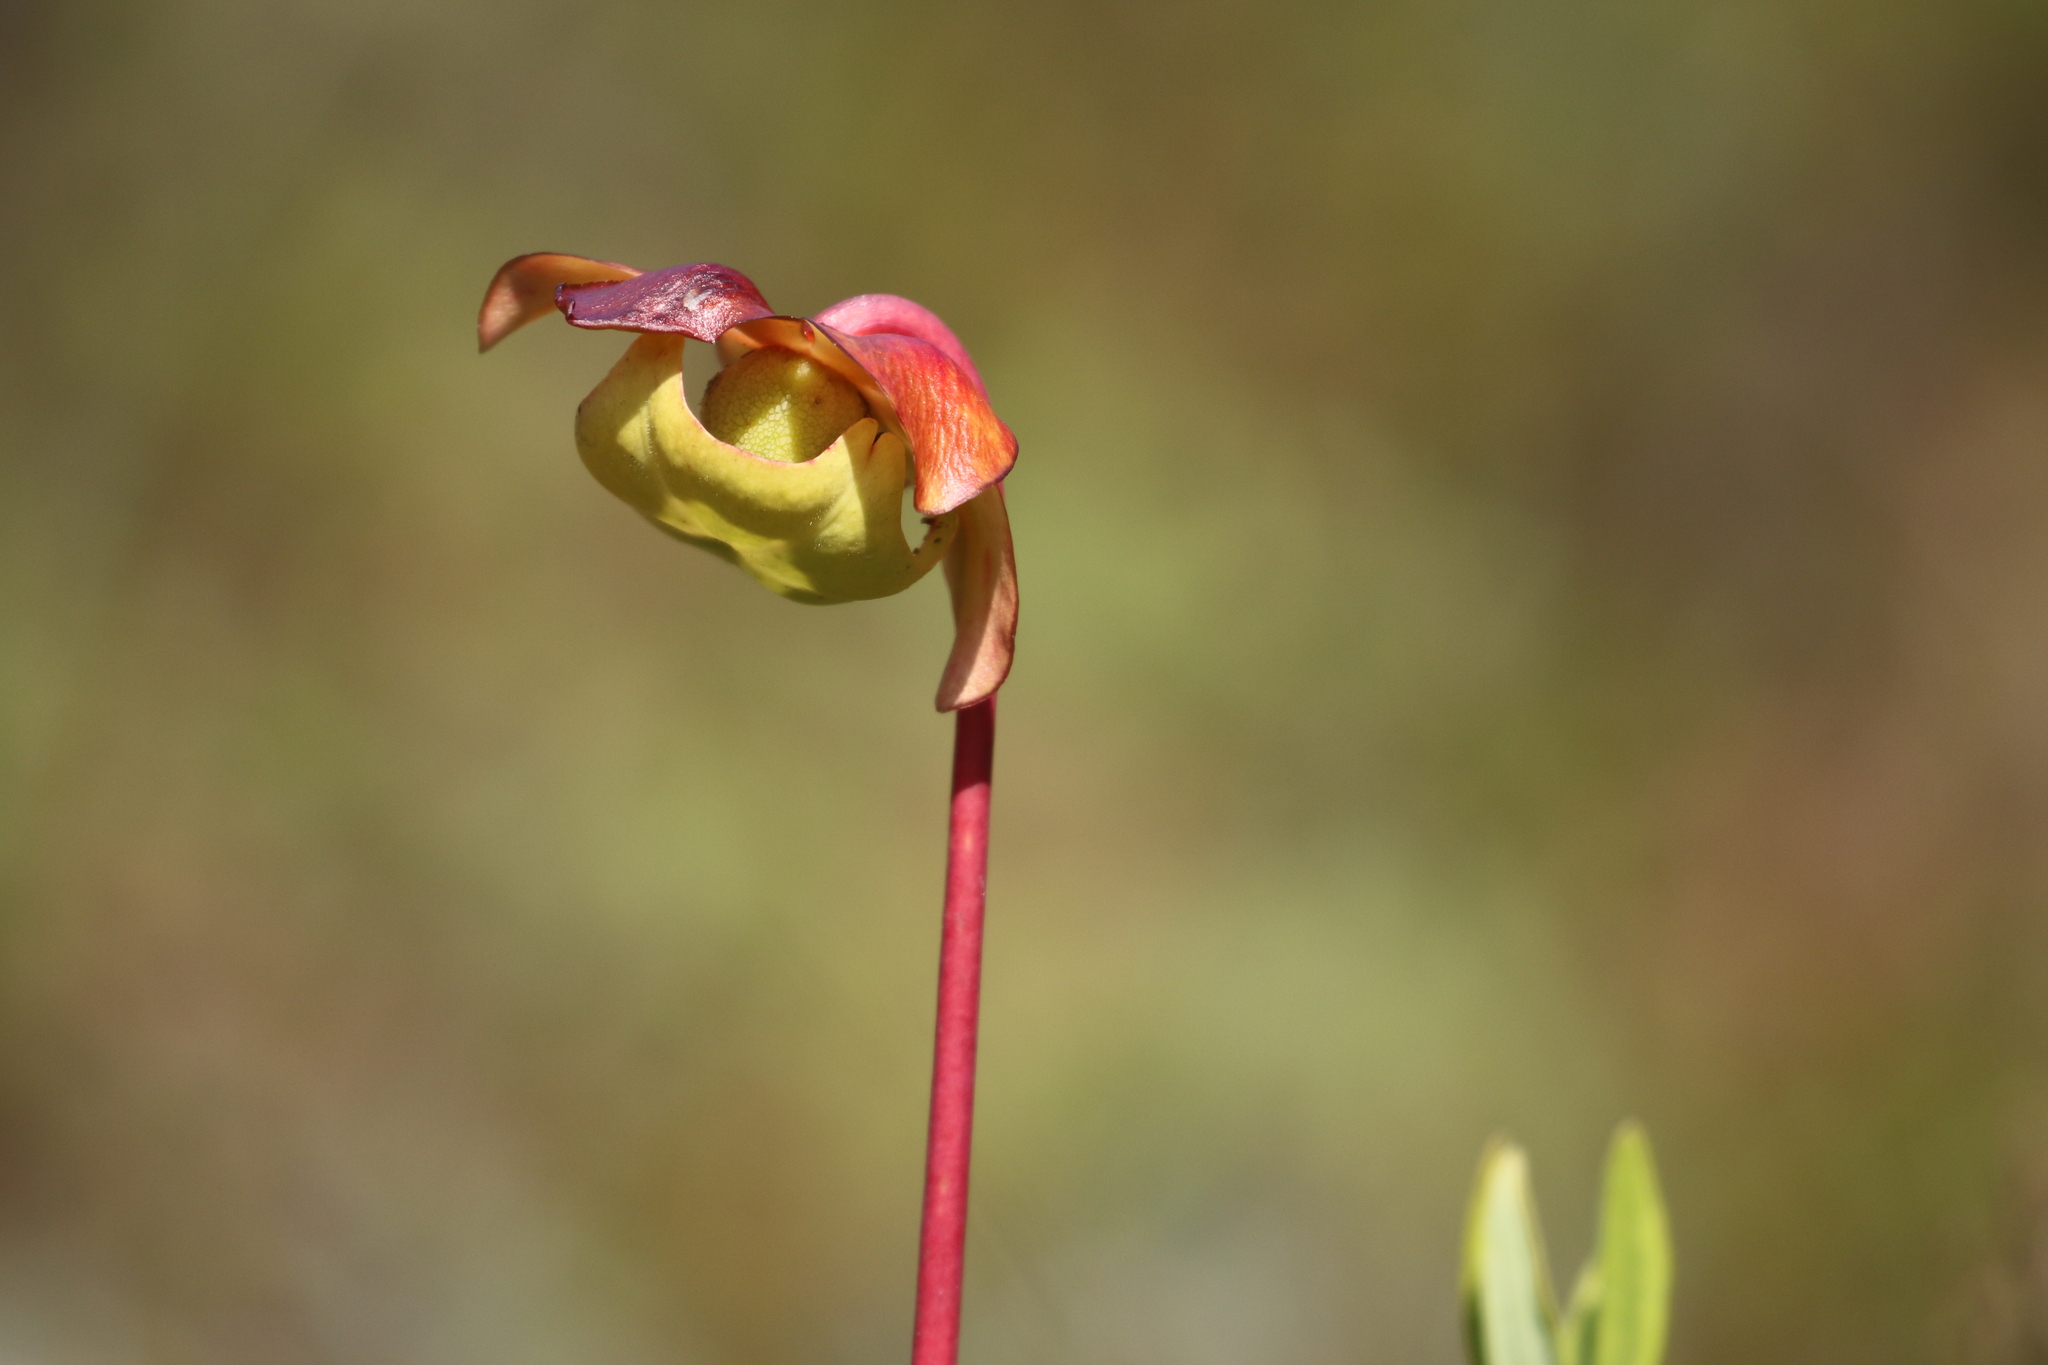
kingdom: Plantae
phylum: Tracheophyta
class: Magnoliopsida
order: Ericales
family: Sarraceniaceae
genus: Sarracenia
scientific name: Sarracenia purpurea
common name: Pitcherplant
